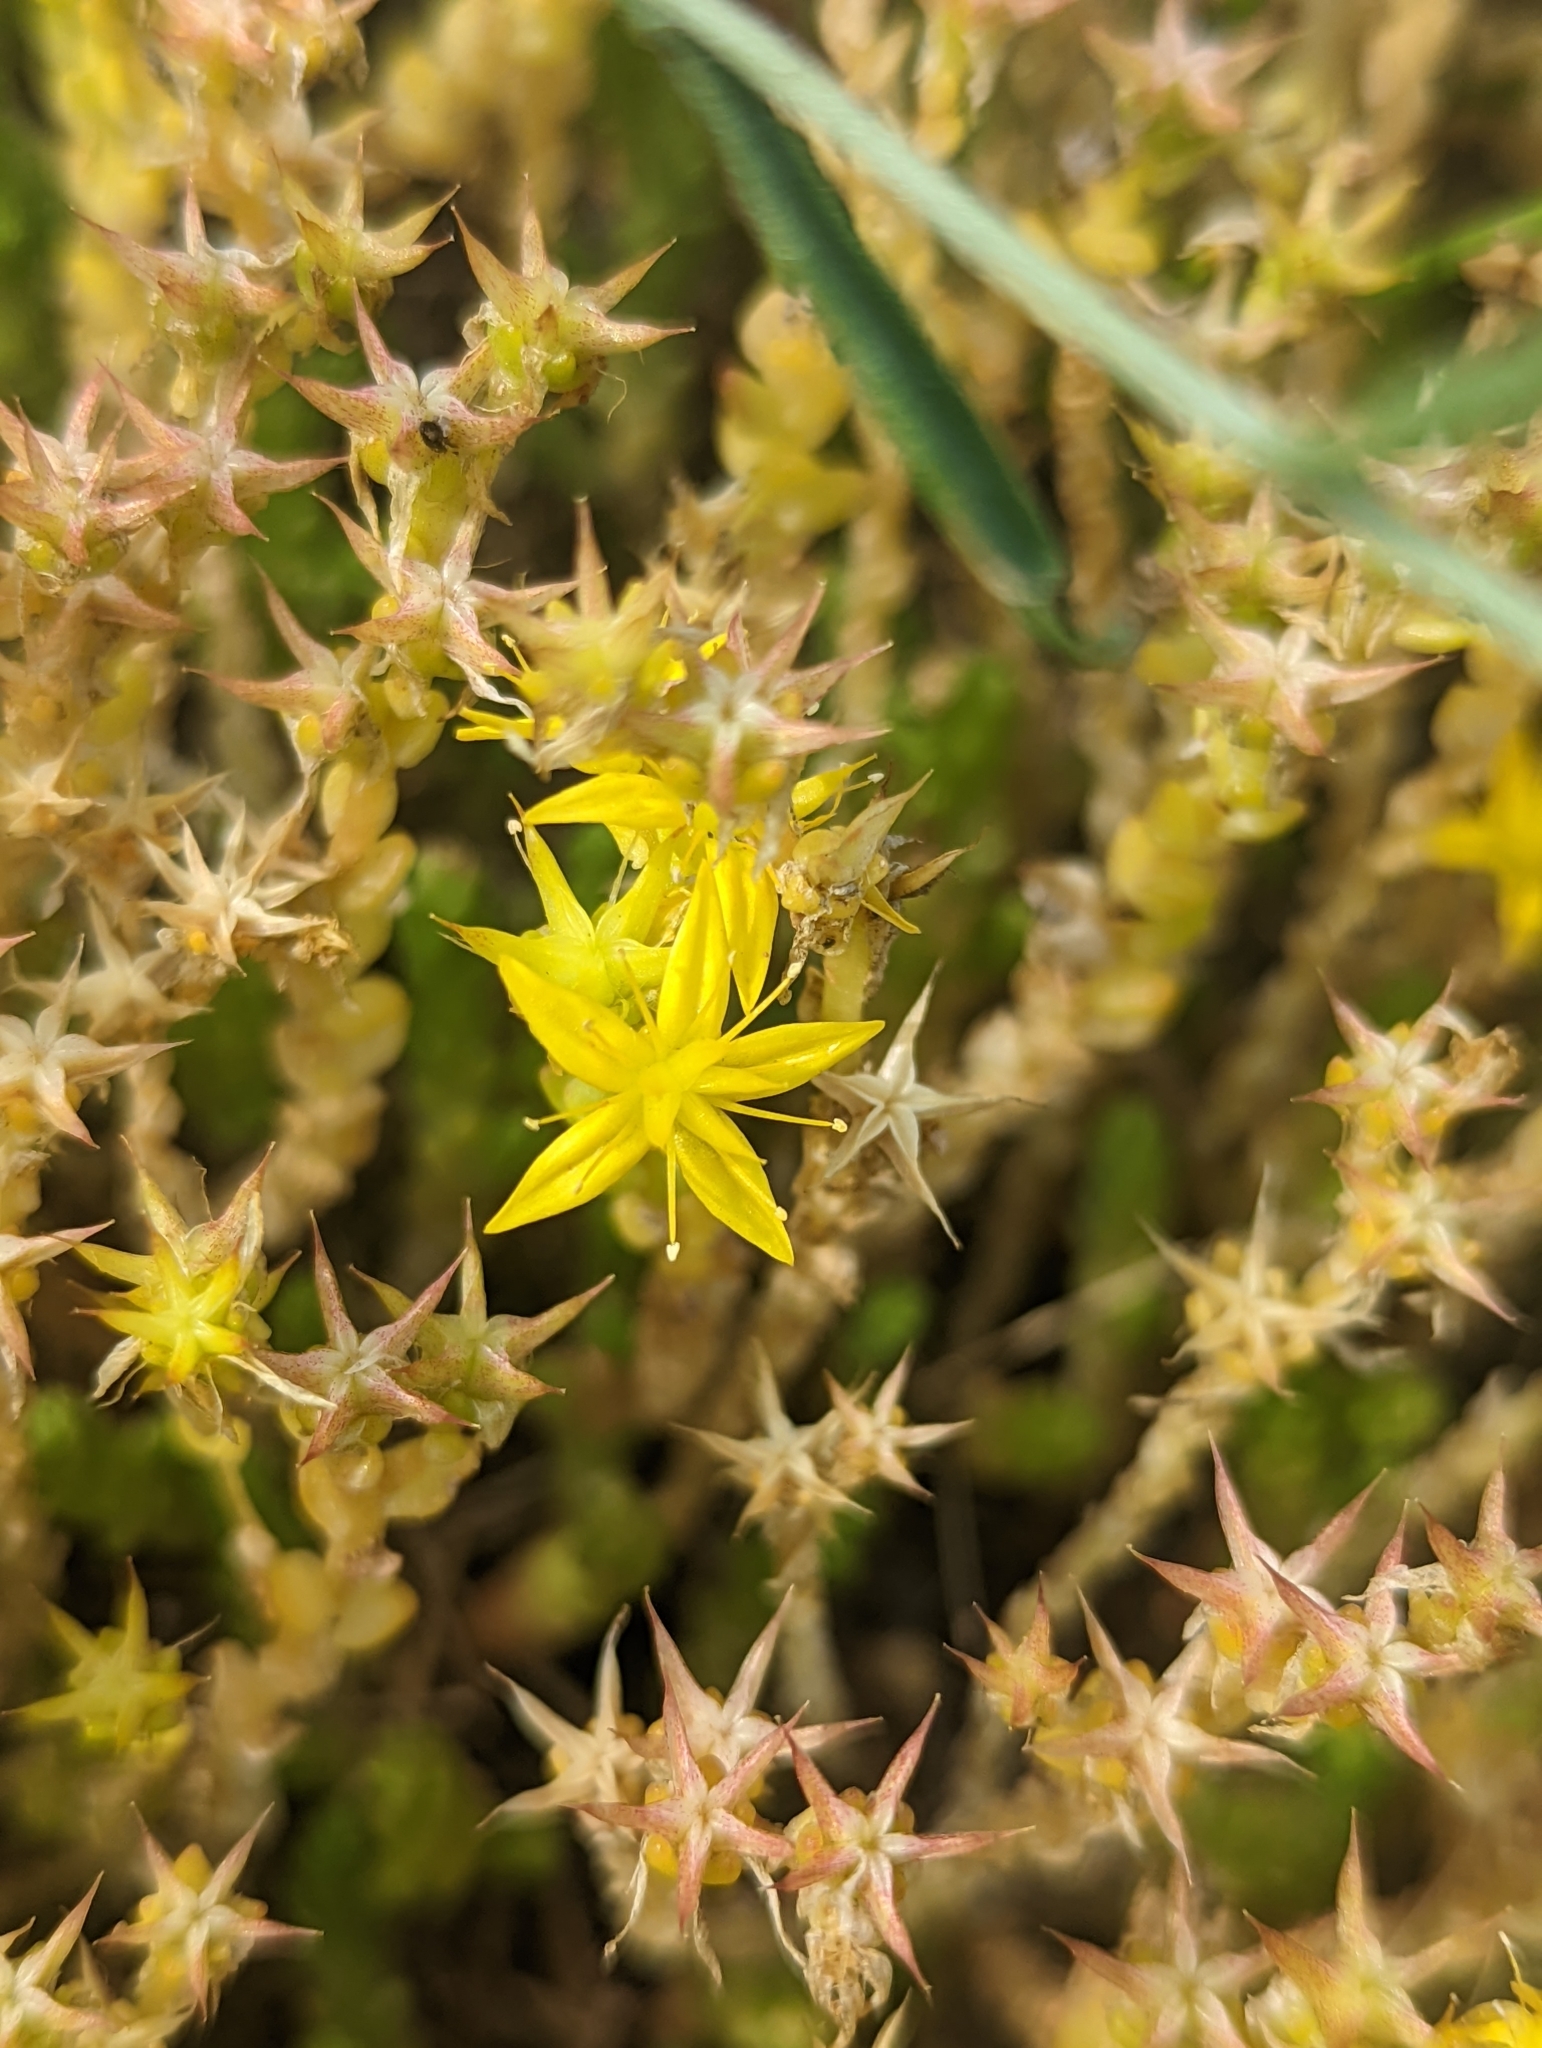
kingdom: Plantae
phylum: Tracheophyta
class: Magnoliopsida
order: Saxifragales
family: Crassulaceae
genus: Sedum
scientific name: Sedum acre
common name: Biting stonecrop
